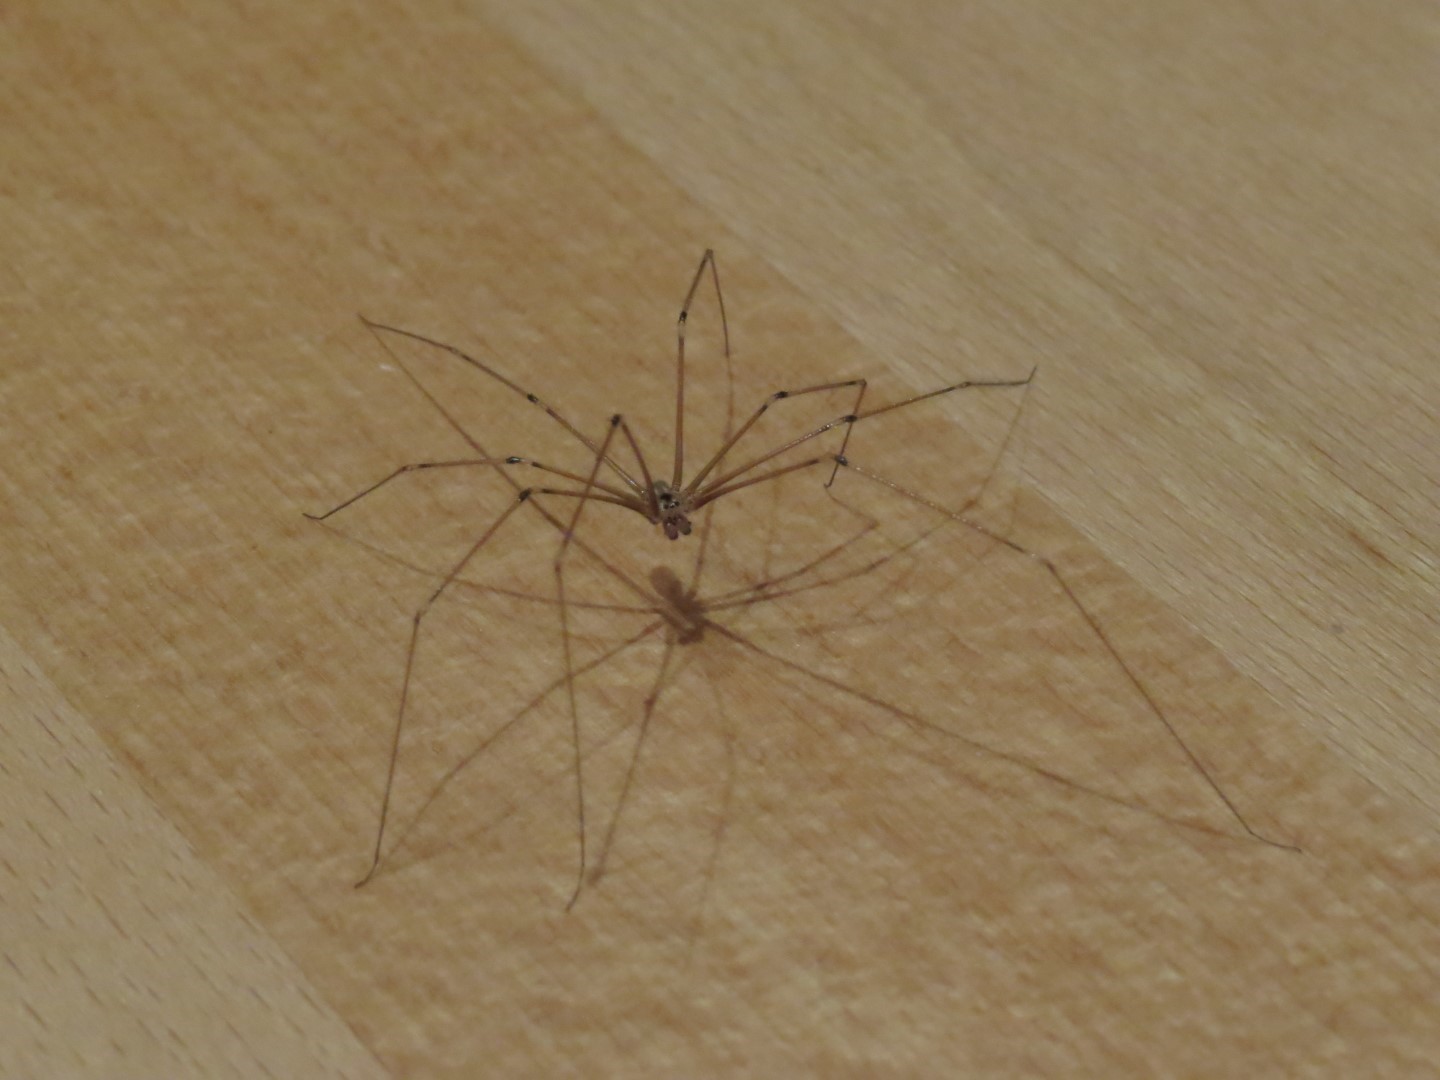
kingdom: Animalia
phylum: Arthropoda
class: Arachnida
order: Araneae
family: Pholcidae
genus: Pholcus
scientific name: Pholcus phalangioides
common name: Longbodied cellar spider
